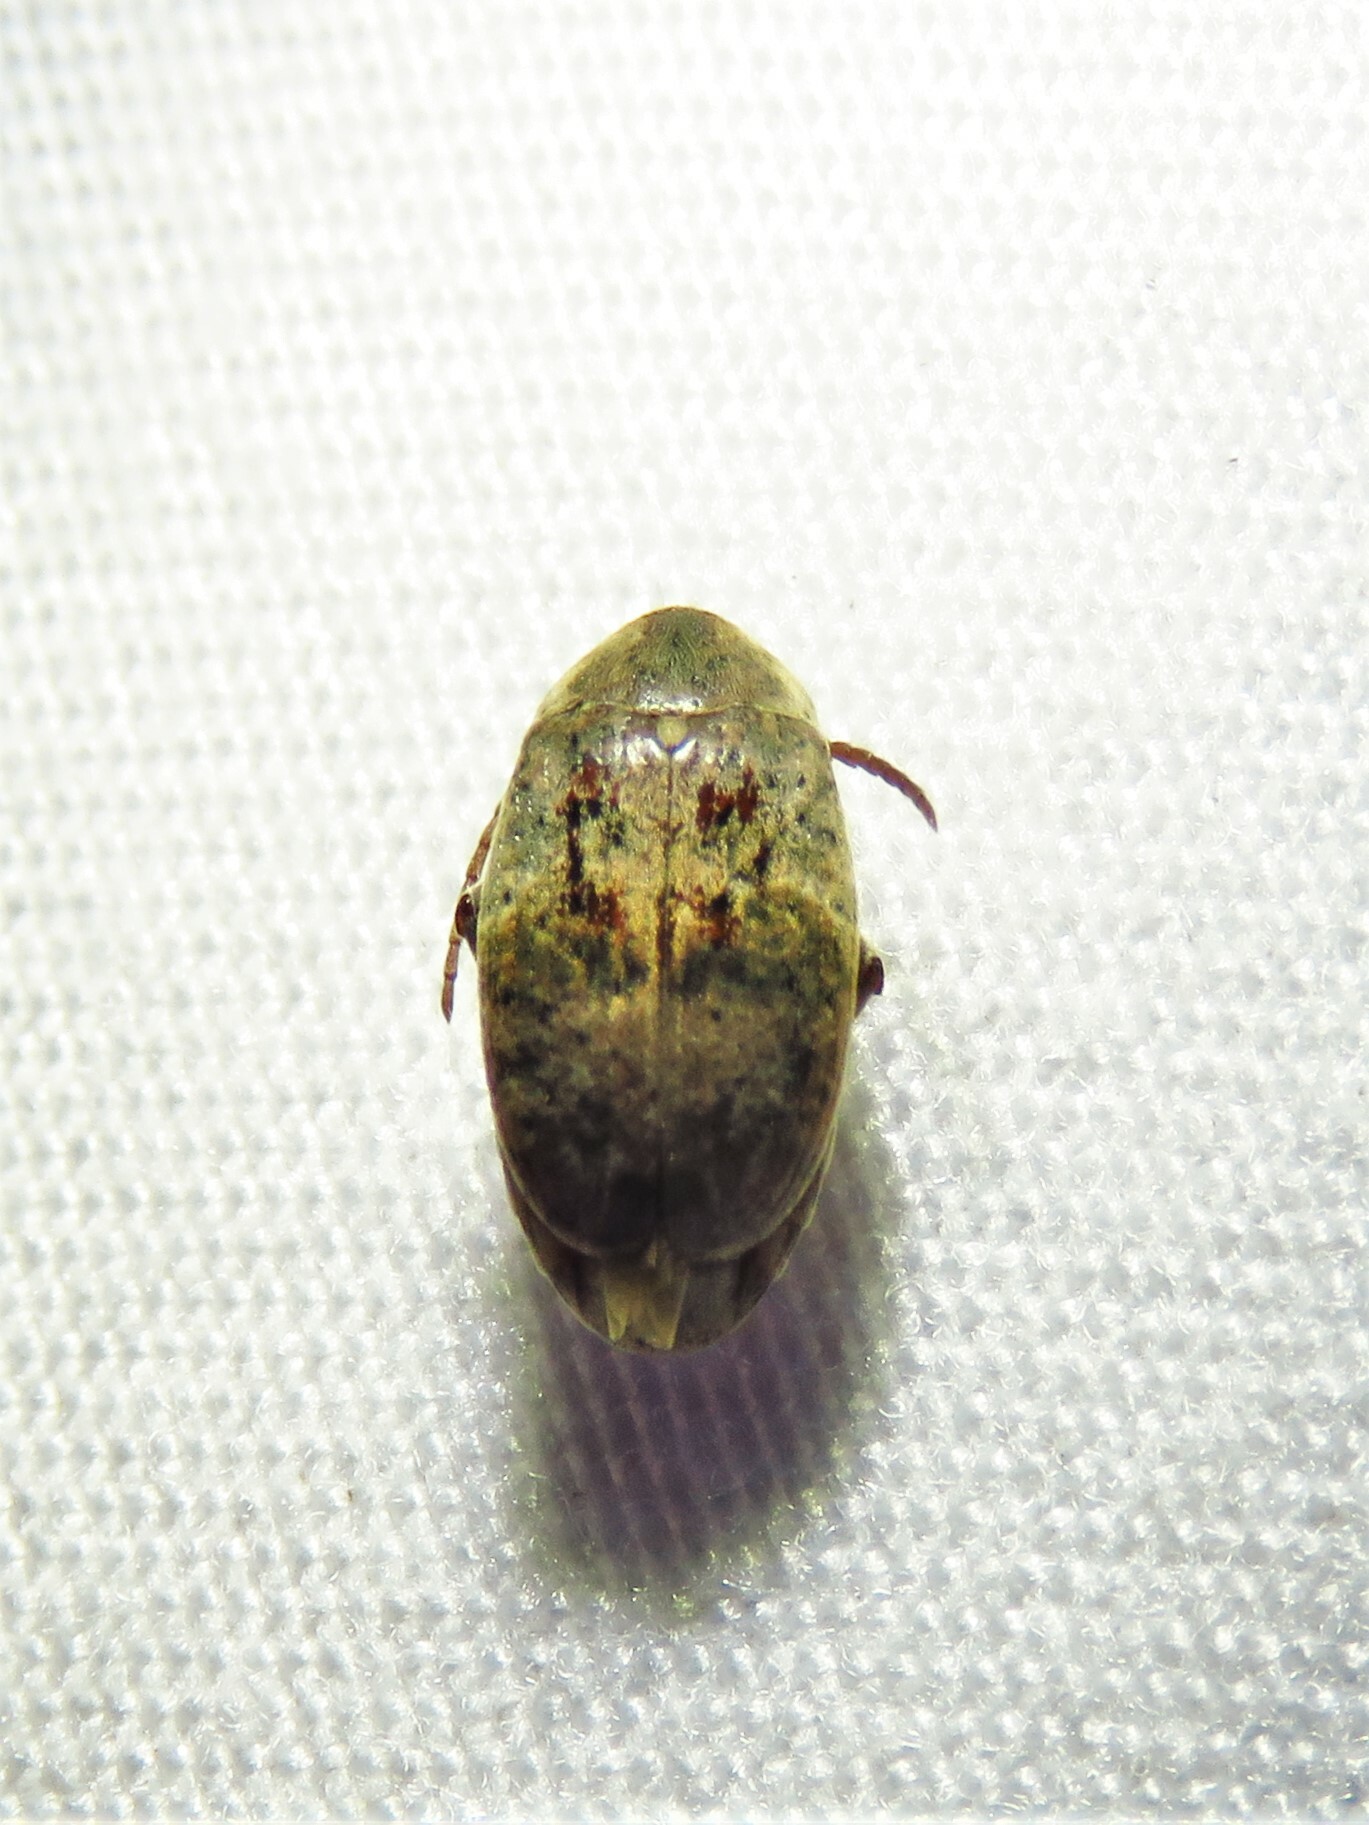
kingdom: Animalia
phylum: Arthropoda
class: Insecta
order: Coleoptera
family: Chrysomelidae
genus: Amblycerus
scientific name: Amblycerus robiniae
